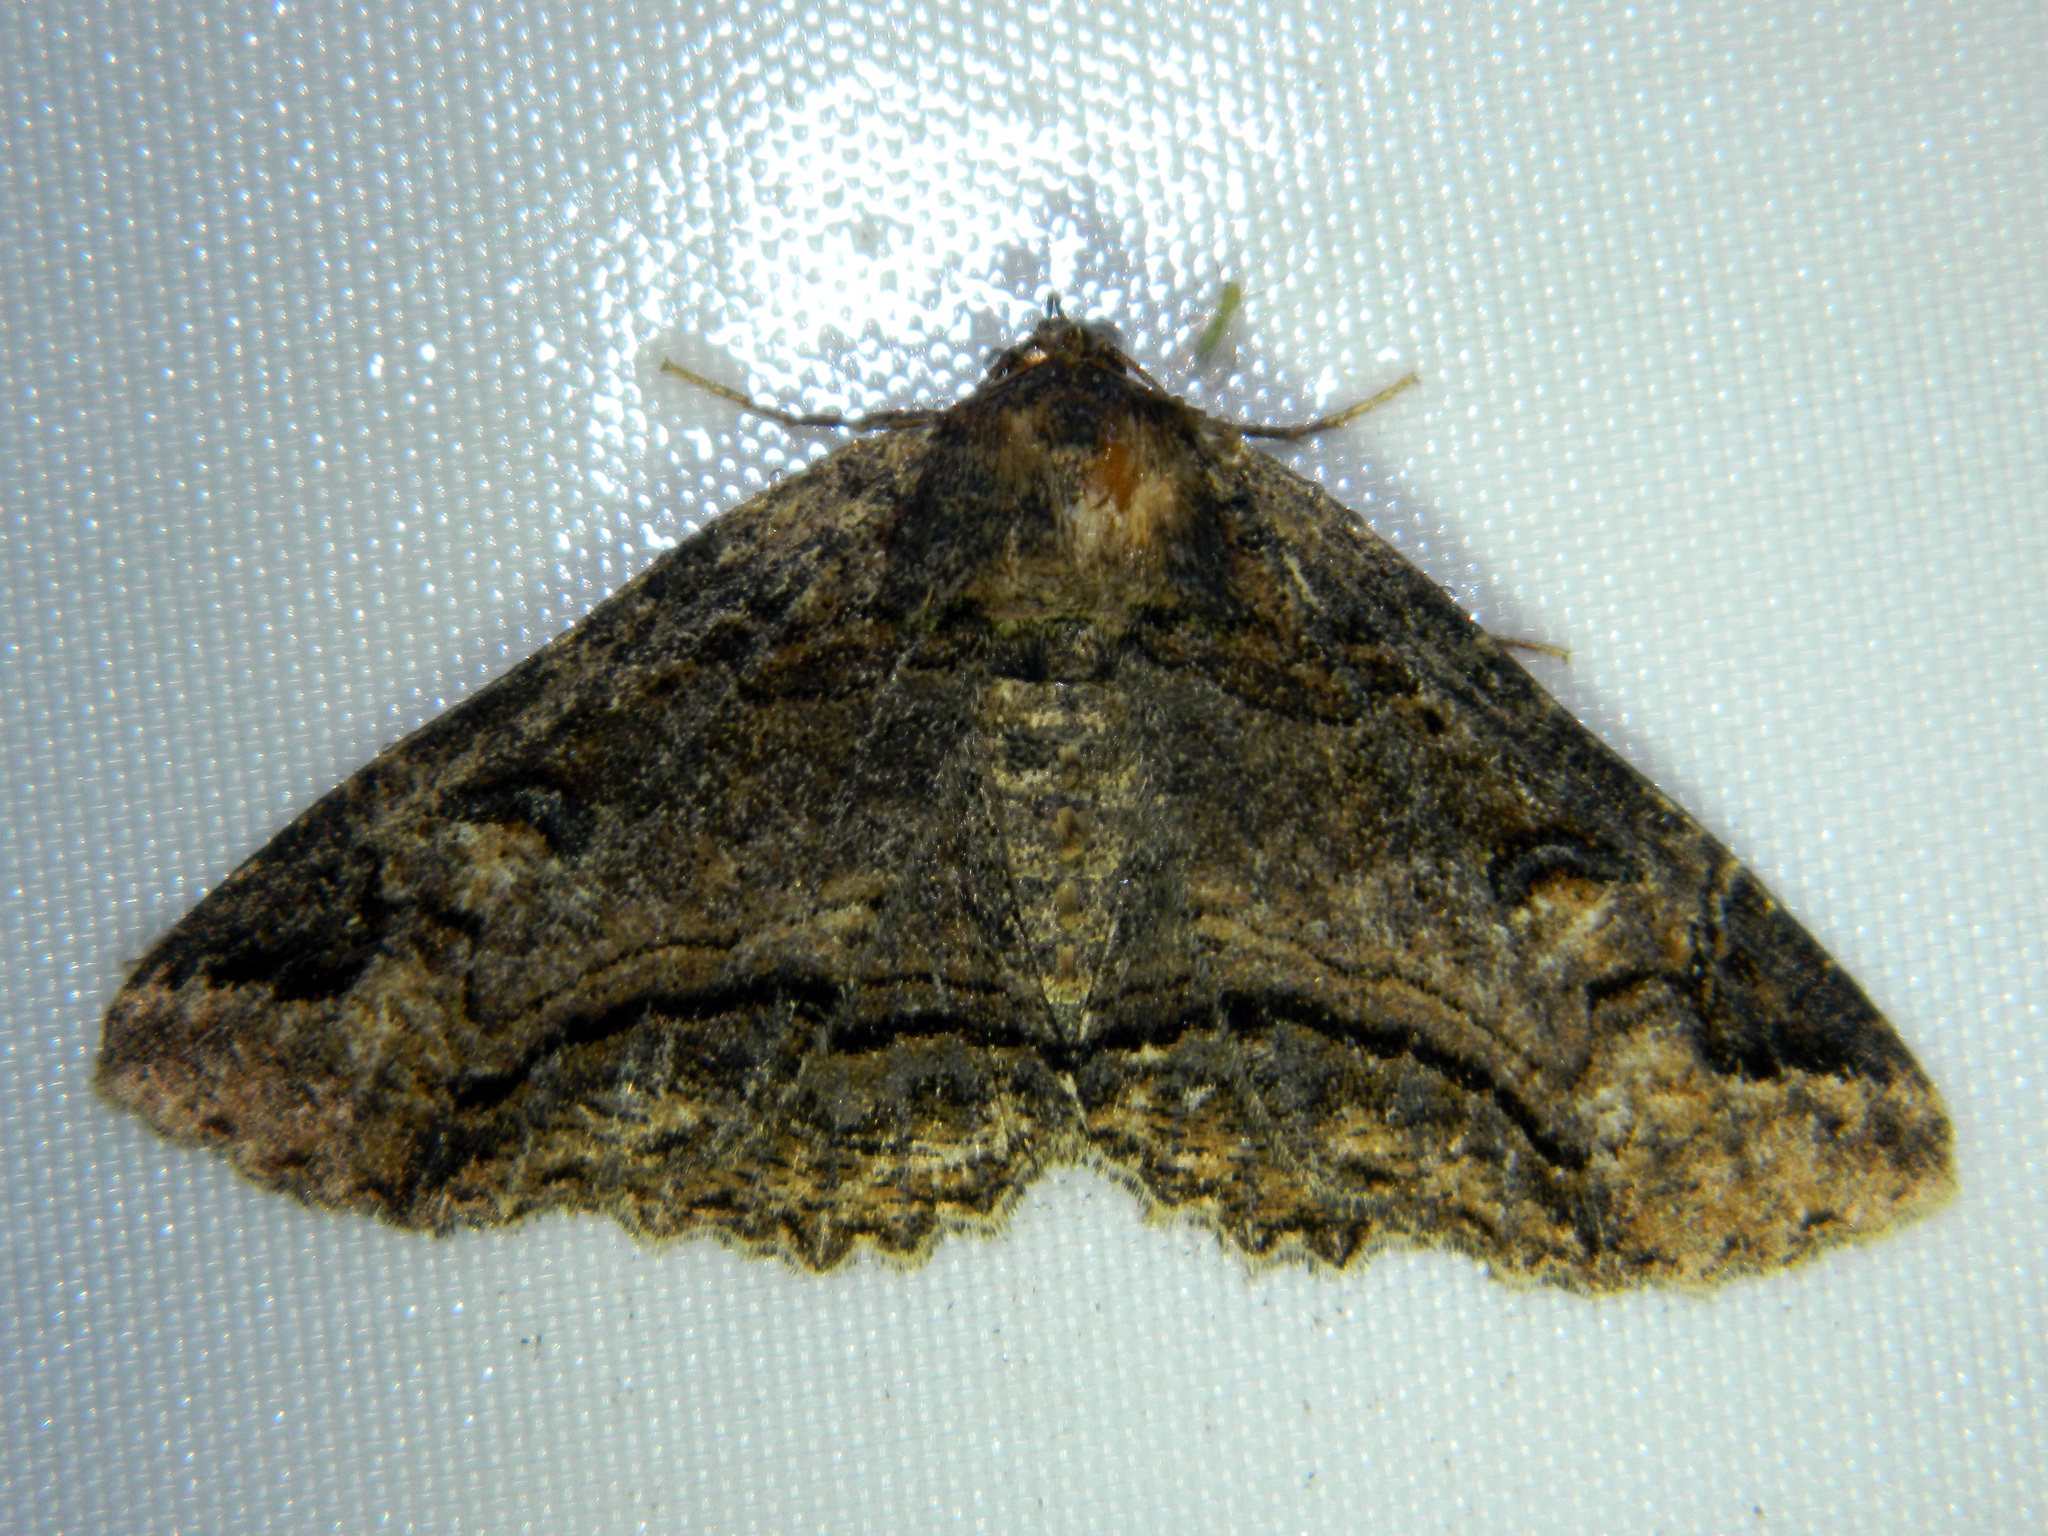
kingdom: Animalia
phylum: Arthropoda
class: Insecta
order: Lepidoptera
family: Erebidae
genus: Zale
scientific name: Zale minerea
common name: Colorful zale moth
